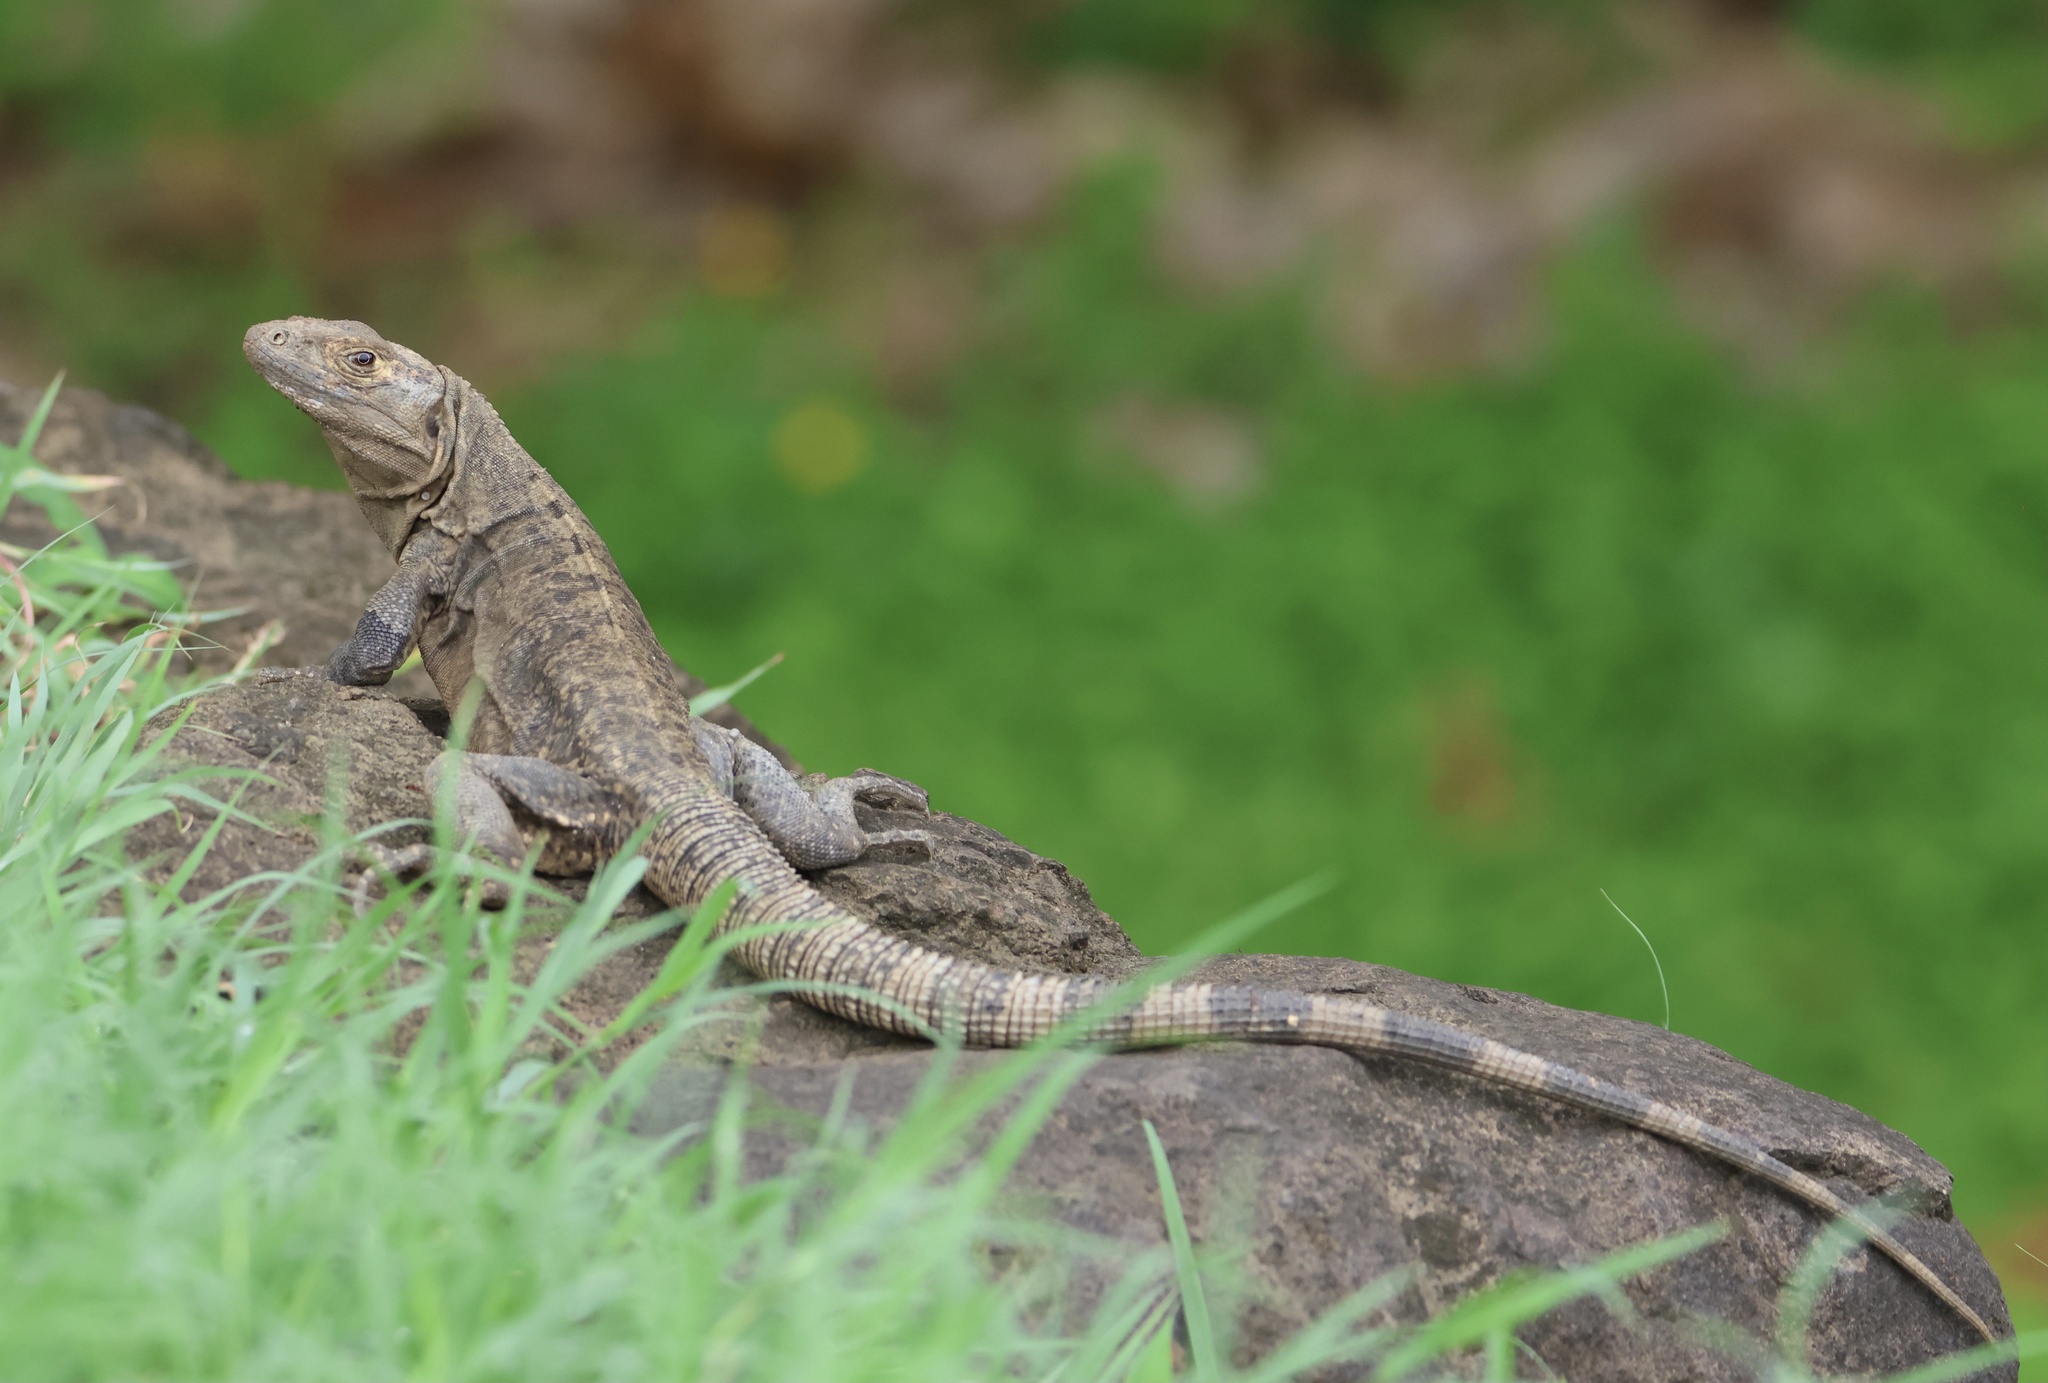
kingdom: Animalia
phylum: Chordata
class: Squamata
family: Iguanidae
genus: Ctenosaura
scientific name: Ctenosaura similis
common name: Black spiny-tailed iguana
